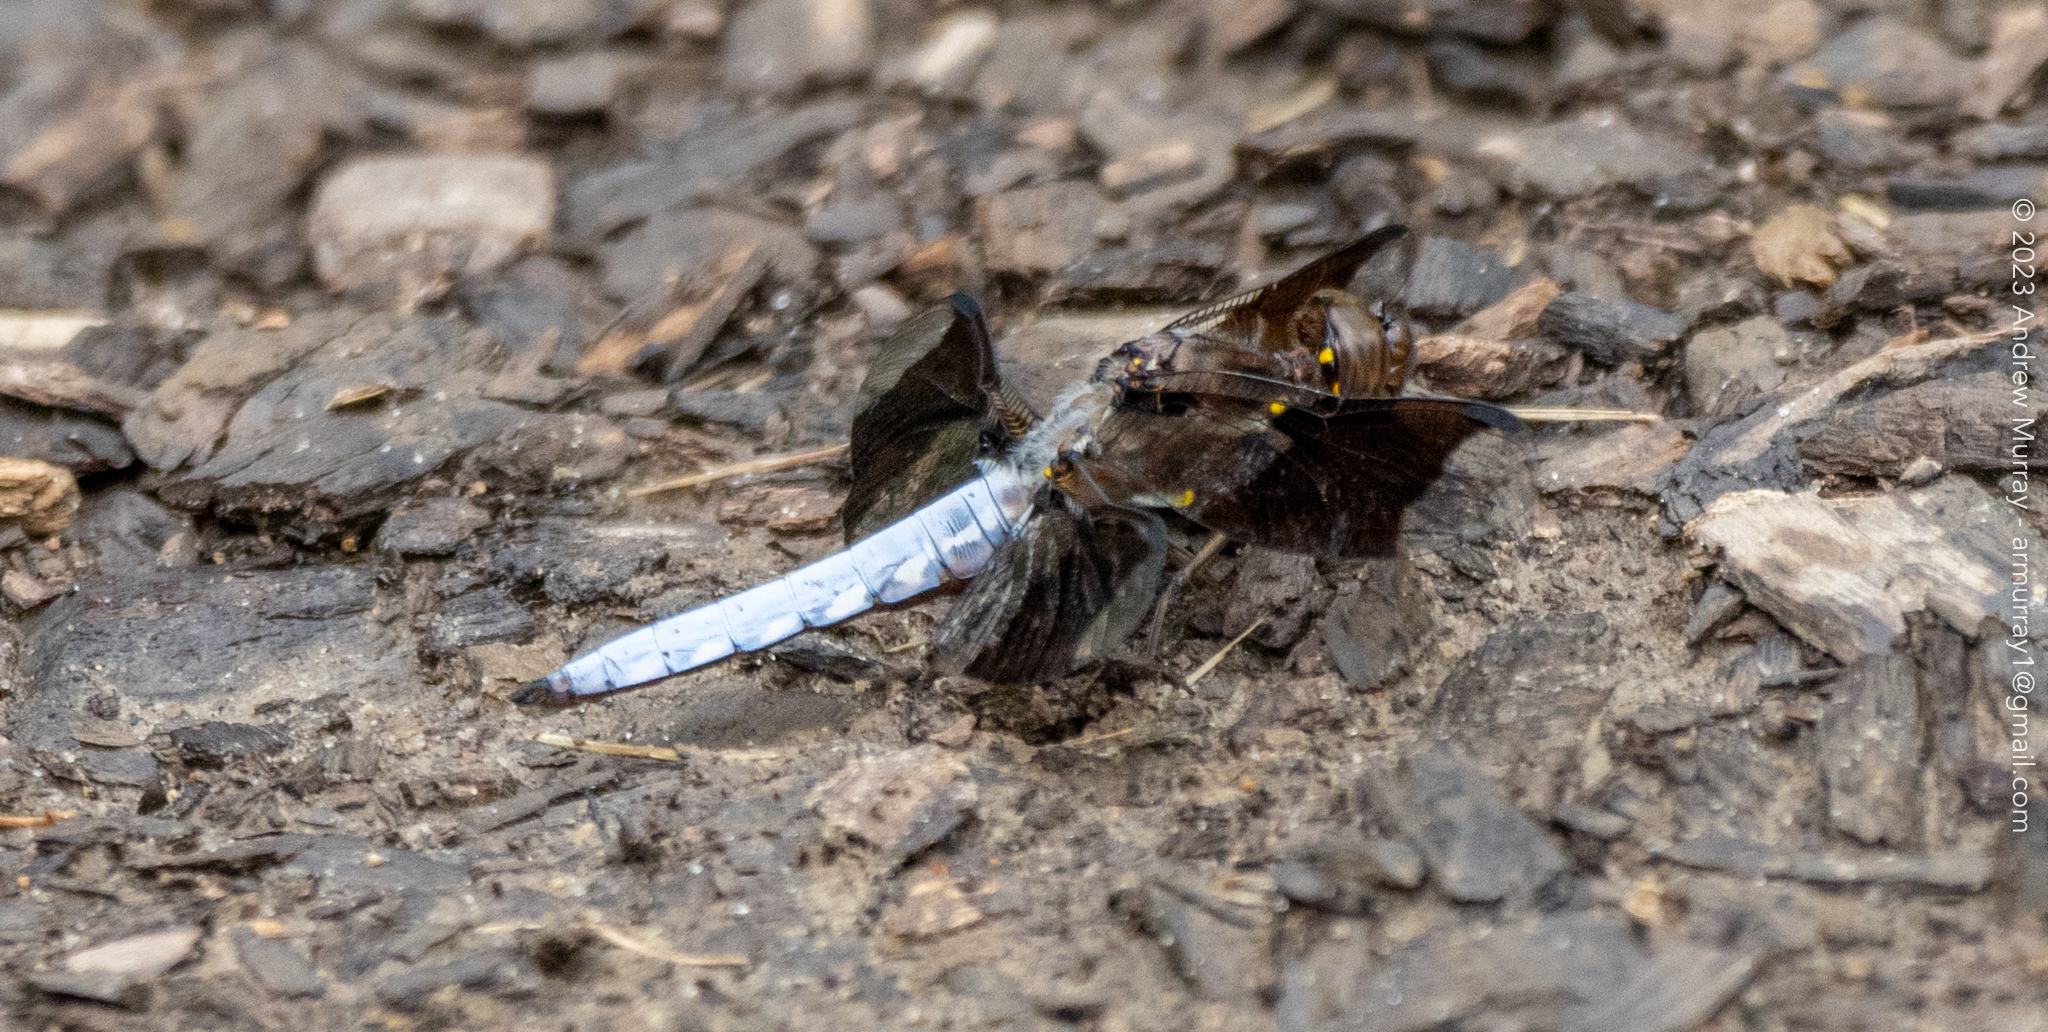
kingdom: Animalia
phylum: Arthropoda
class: Insecta
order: Odonata
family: Libellulidae
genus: Plathemis
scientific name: Plathemis lydia
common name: Common whitetail
